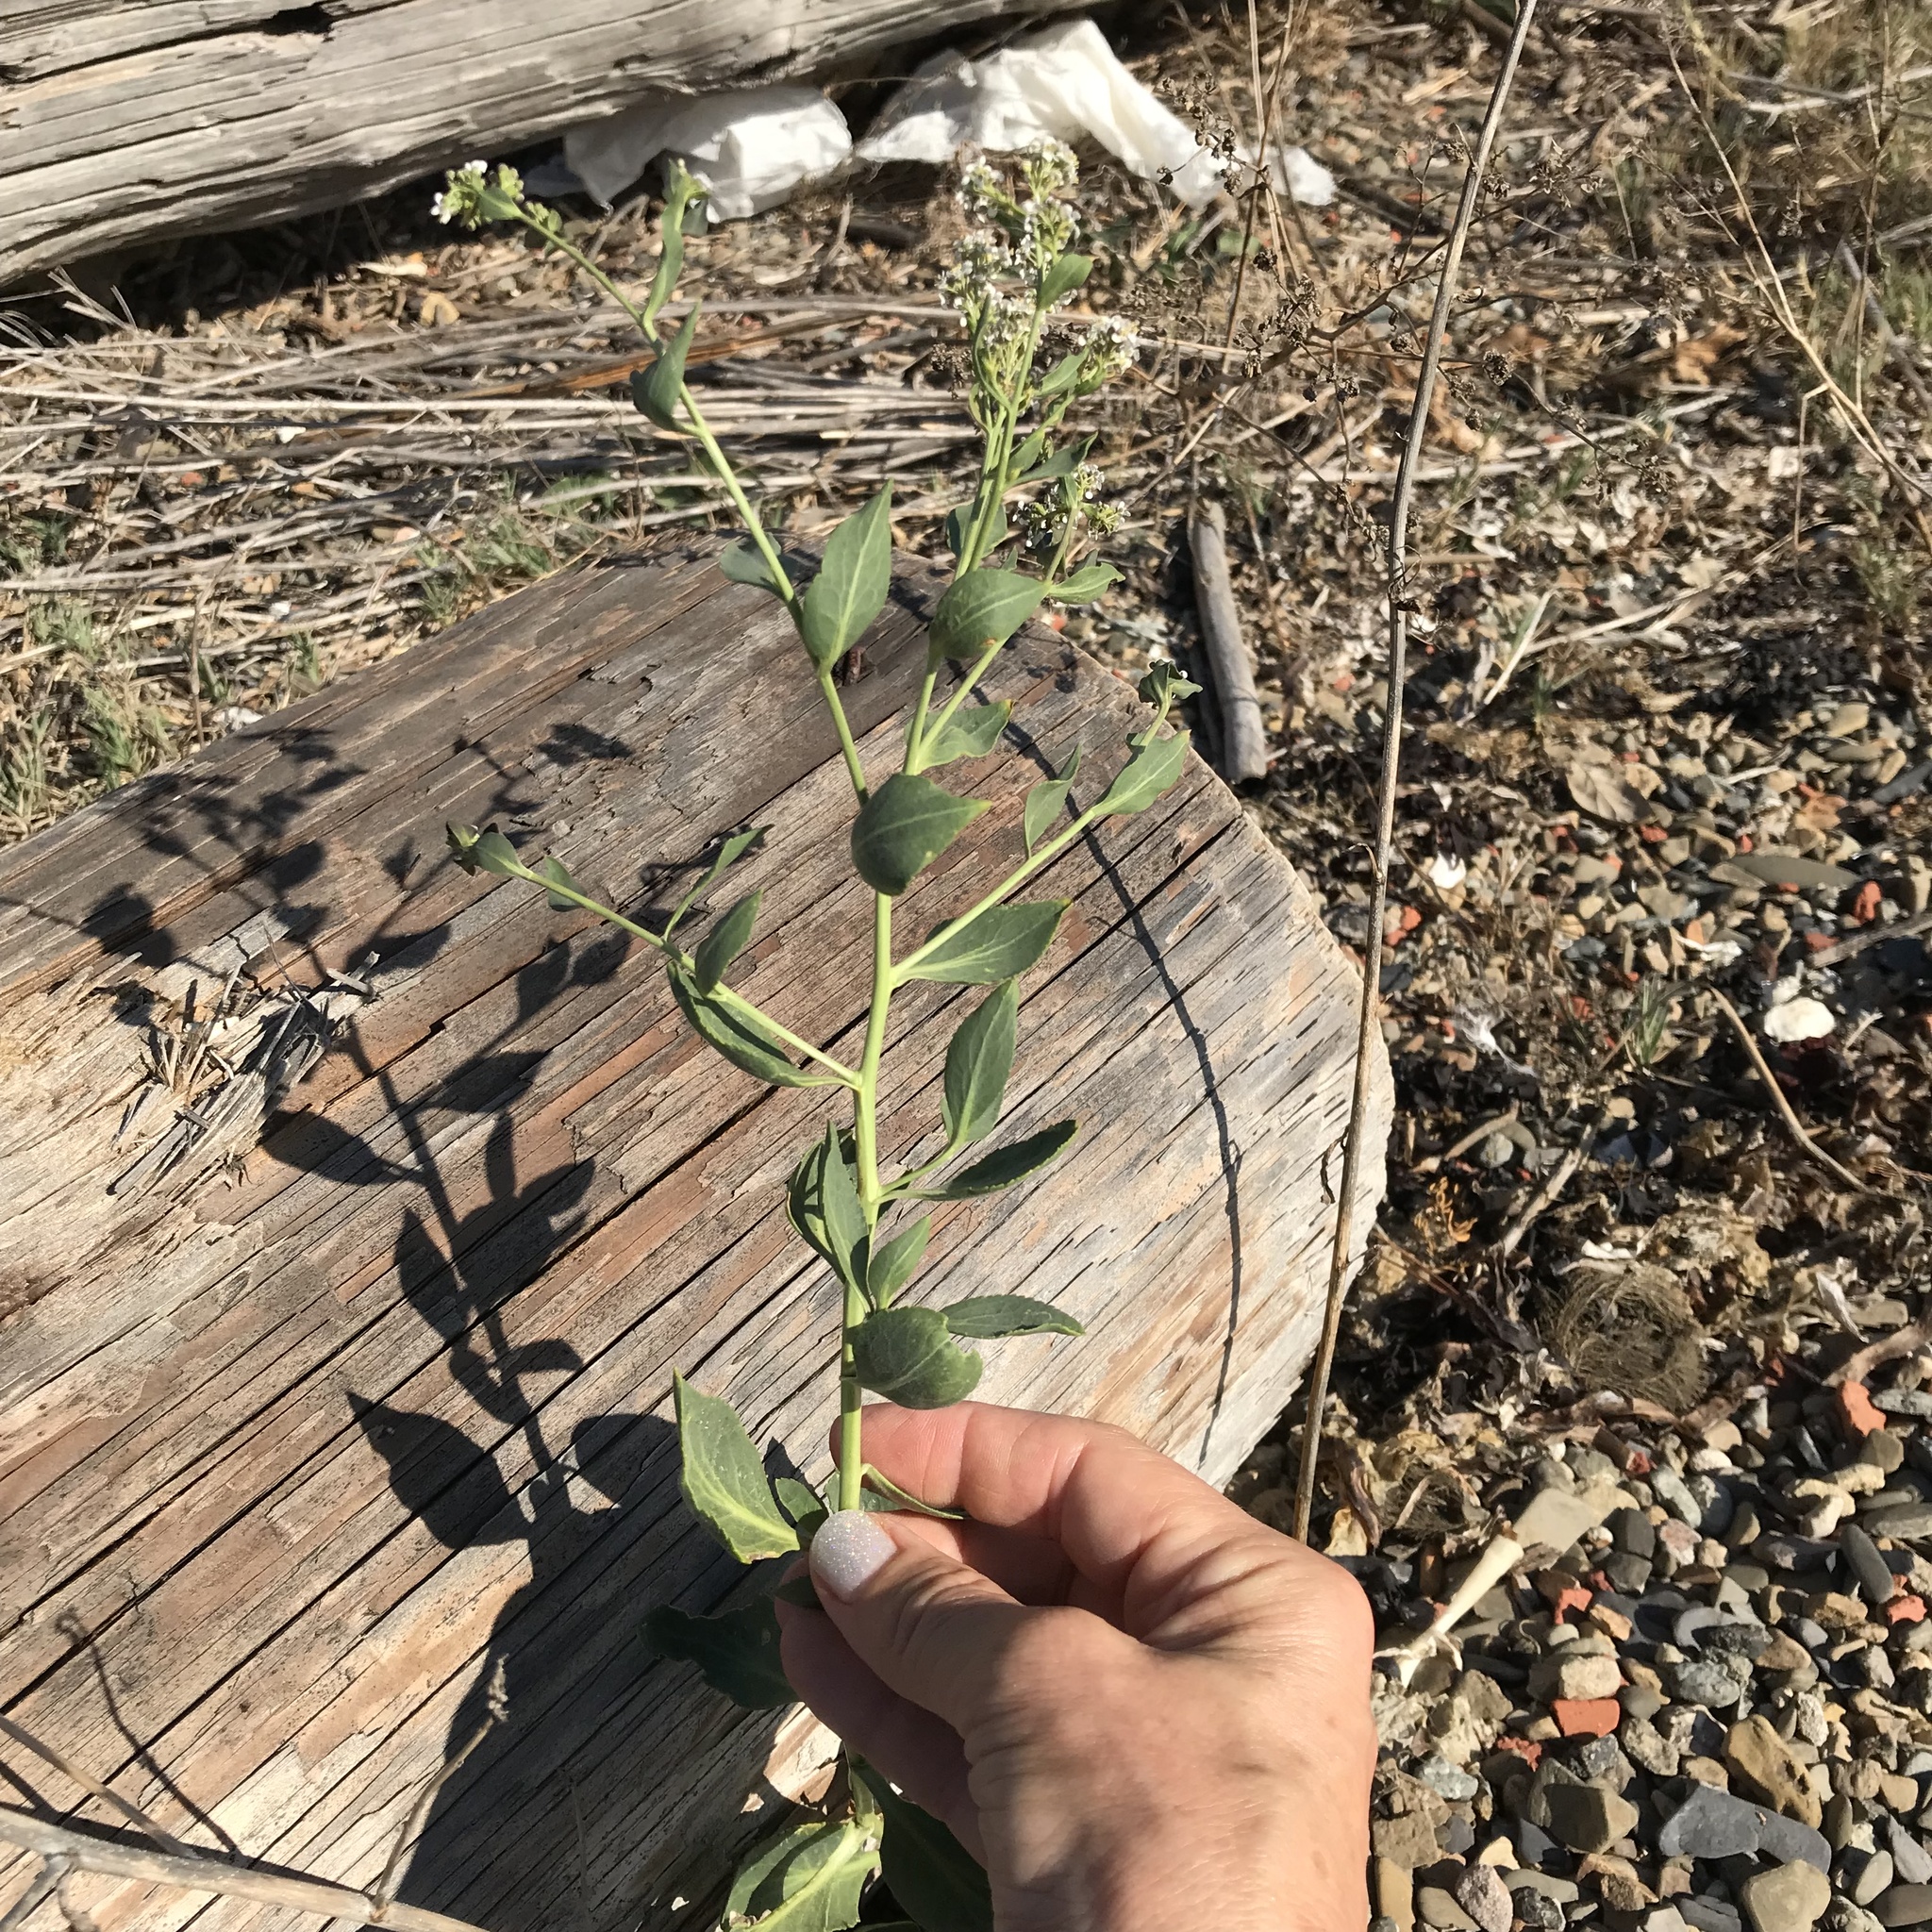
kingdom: Plantae
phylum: Tracheophyta
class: Magnoliopsida
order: Brassicales
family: Brassicaceae
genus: Lepidium
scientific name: Lepidium latifolium
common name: Dittander
